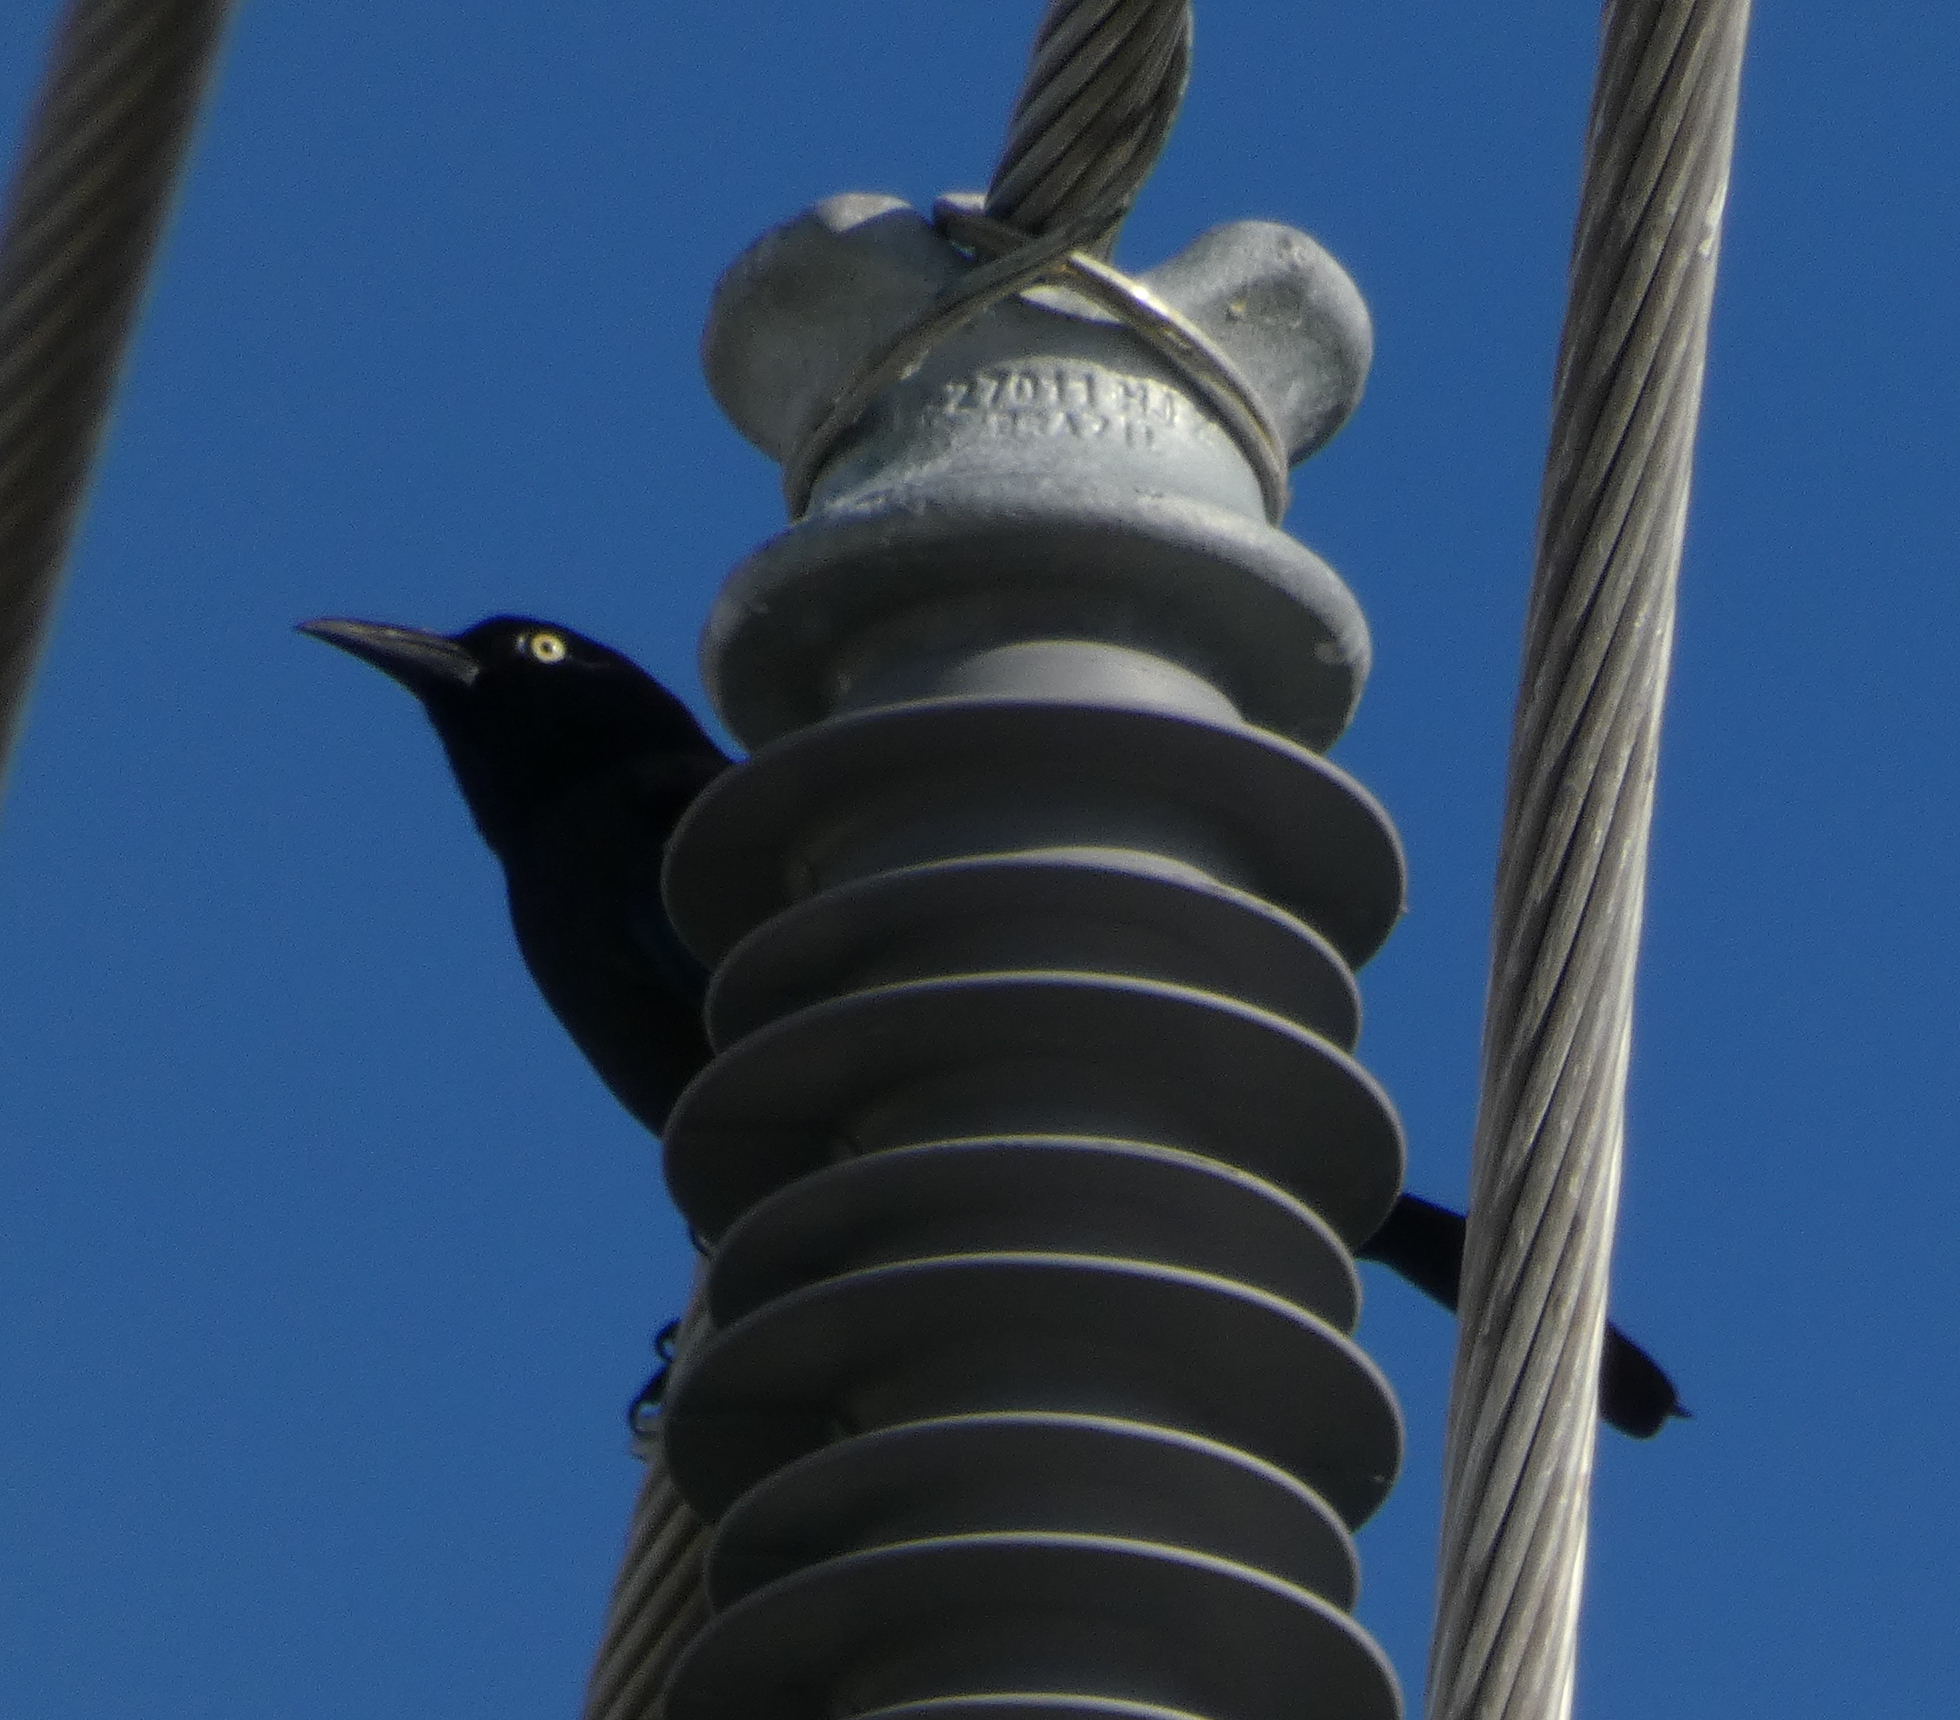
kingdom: Animalia
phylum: Chordata
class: Aves
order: Passeriformes
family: Icteridae
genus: Quiscalus
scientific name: Quiscalus quiscula
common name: Common grackle
